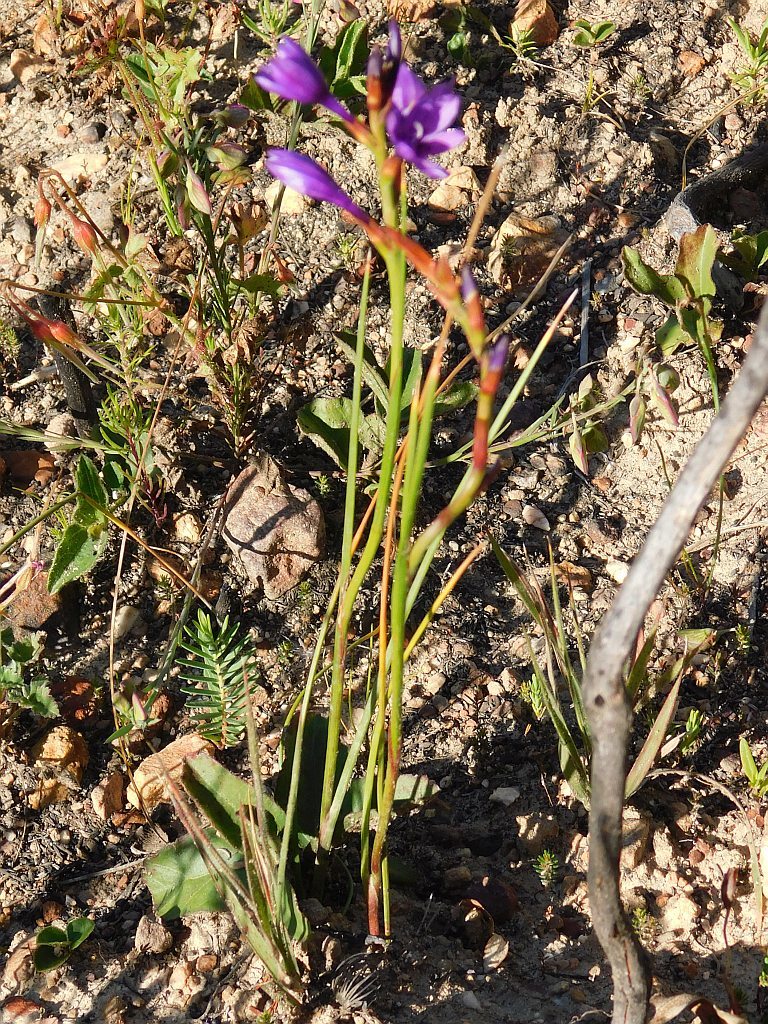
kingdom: Plantae
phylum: Tracheophyta
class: Liliopsida
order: Asparagales
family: Iridaceae
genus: Thereianthus
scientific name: Thereianthus bracteolatus
